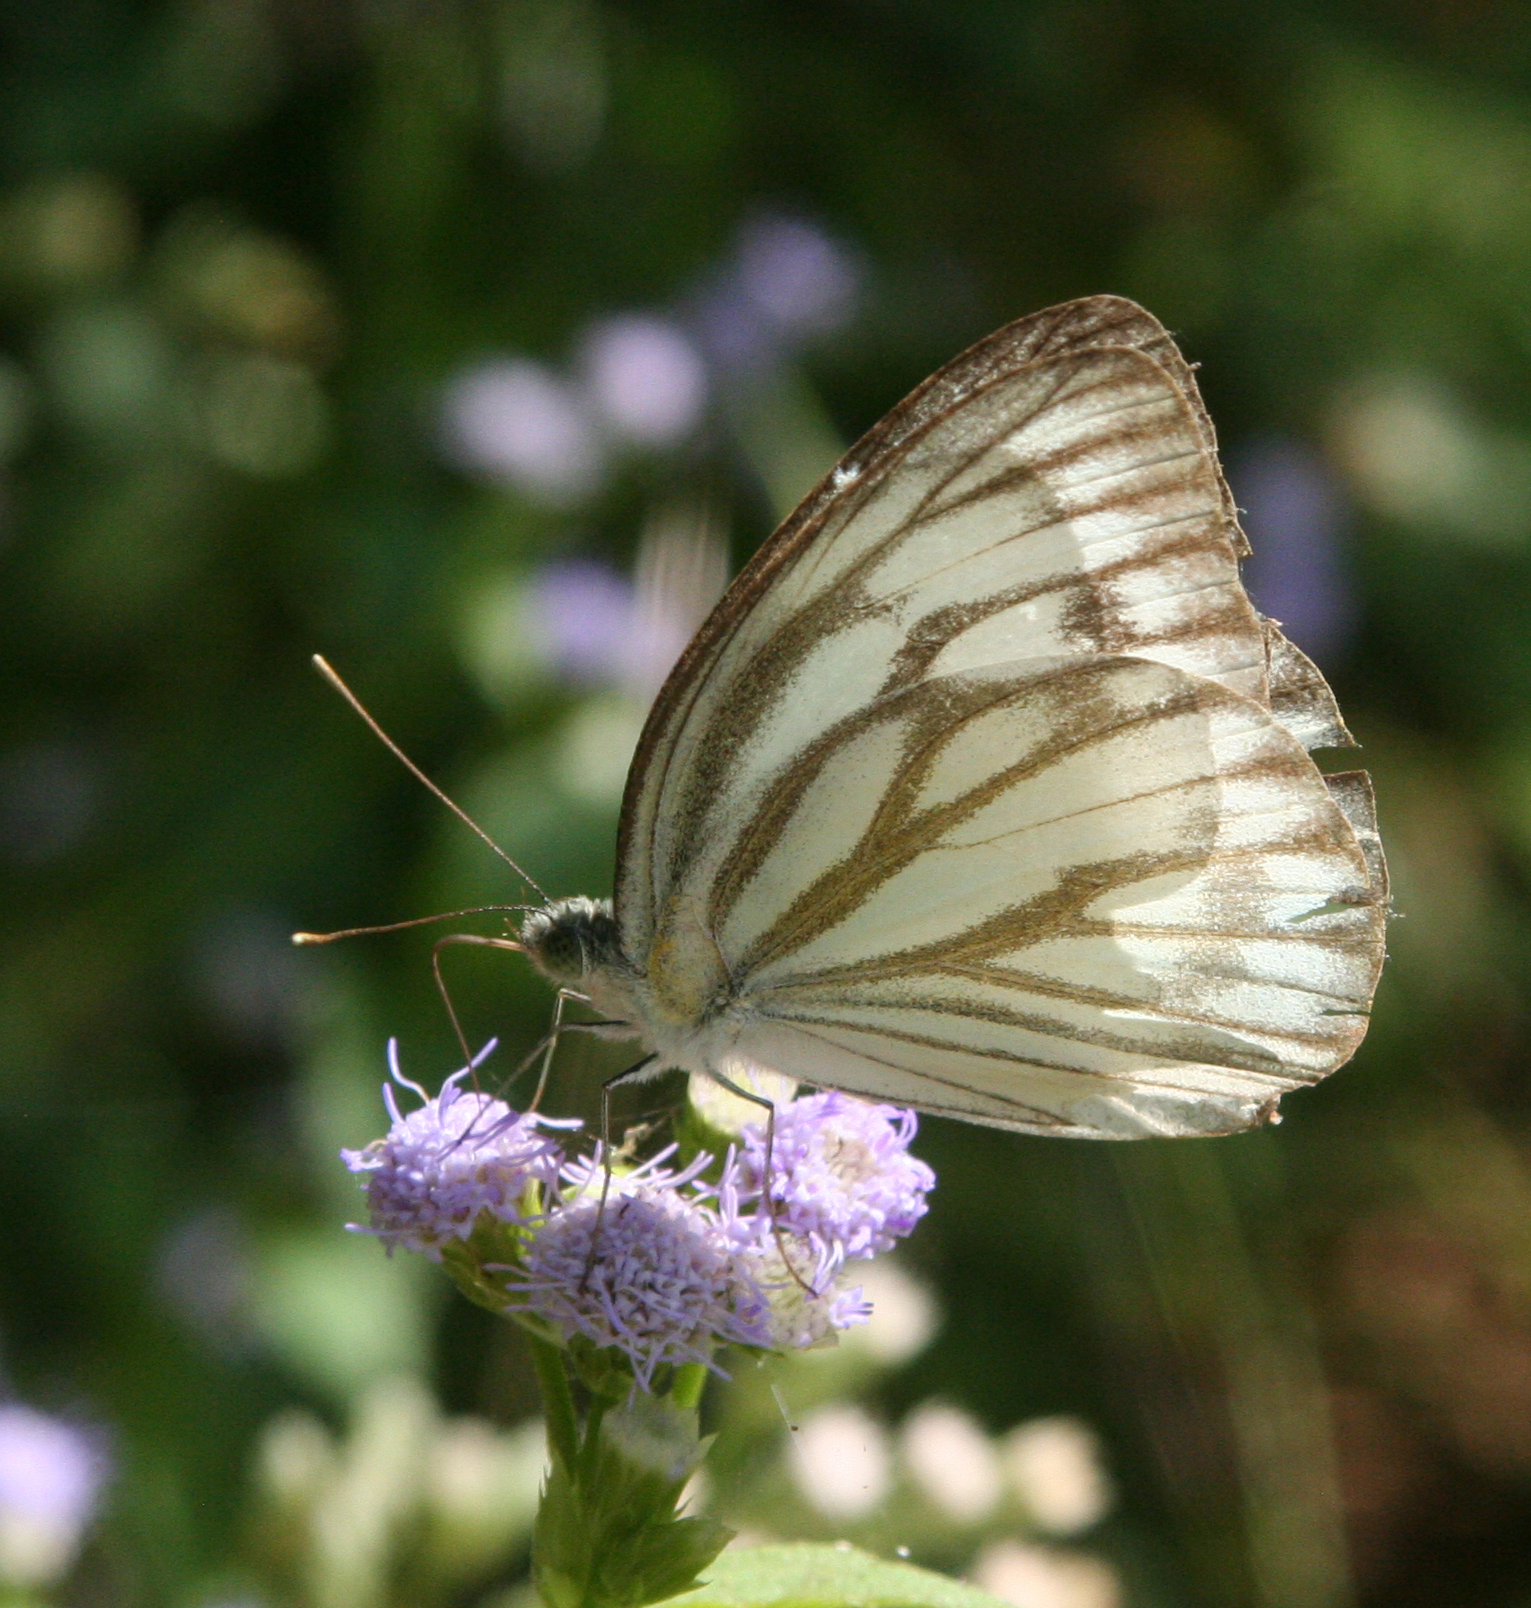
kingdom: Animalia
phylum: Arthropoda
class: Insecta
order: Lepidoptera
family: Pieridae
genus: Cepora
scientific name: Cepora nerissa
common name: Common gull
